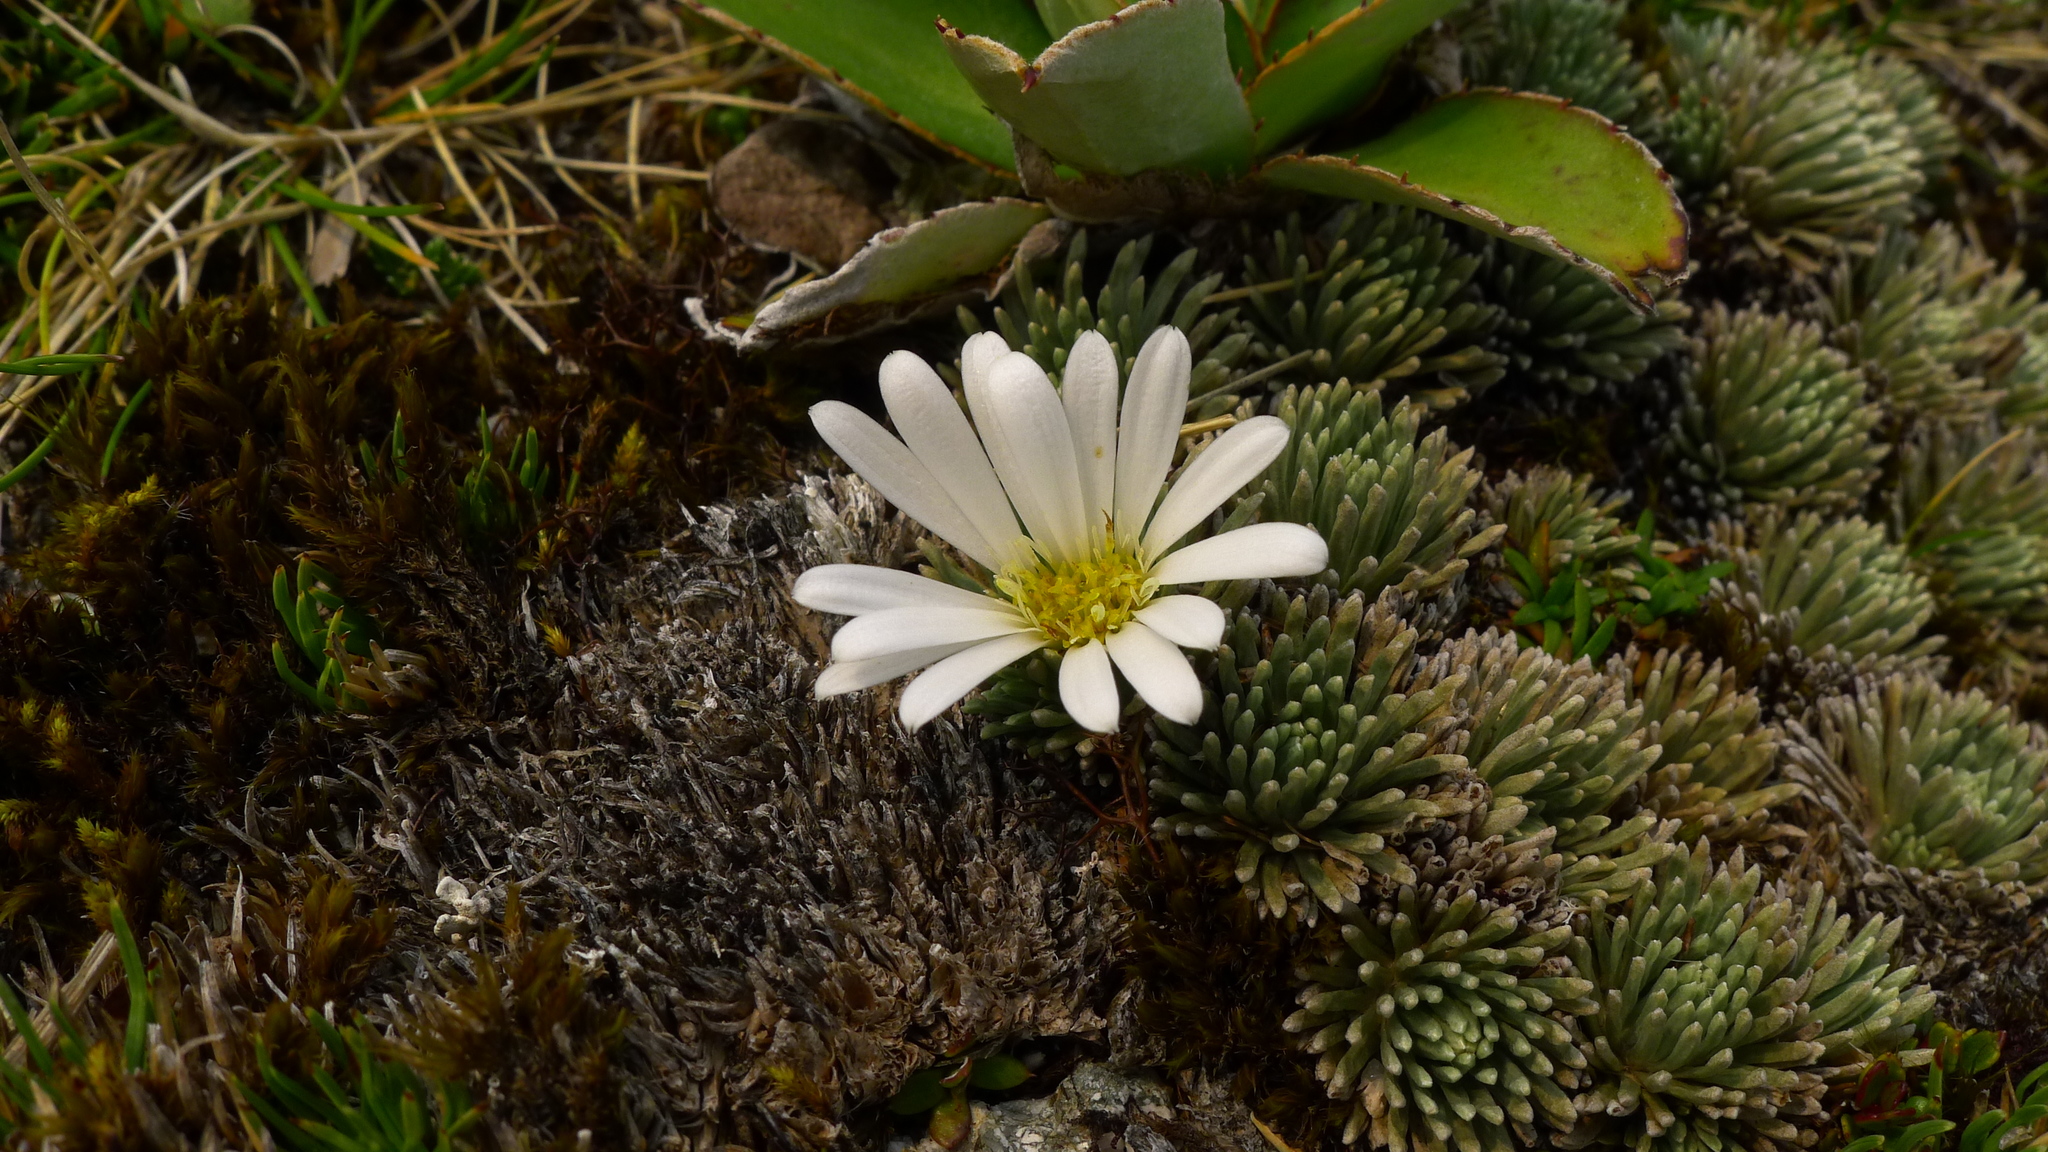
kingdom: Plantae
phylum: Tracheophyta
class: Magnoliopsida
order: Asterales
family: Asteraceae
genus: Celmisia
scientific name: Celmisia sessiliflora
